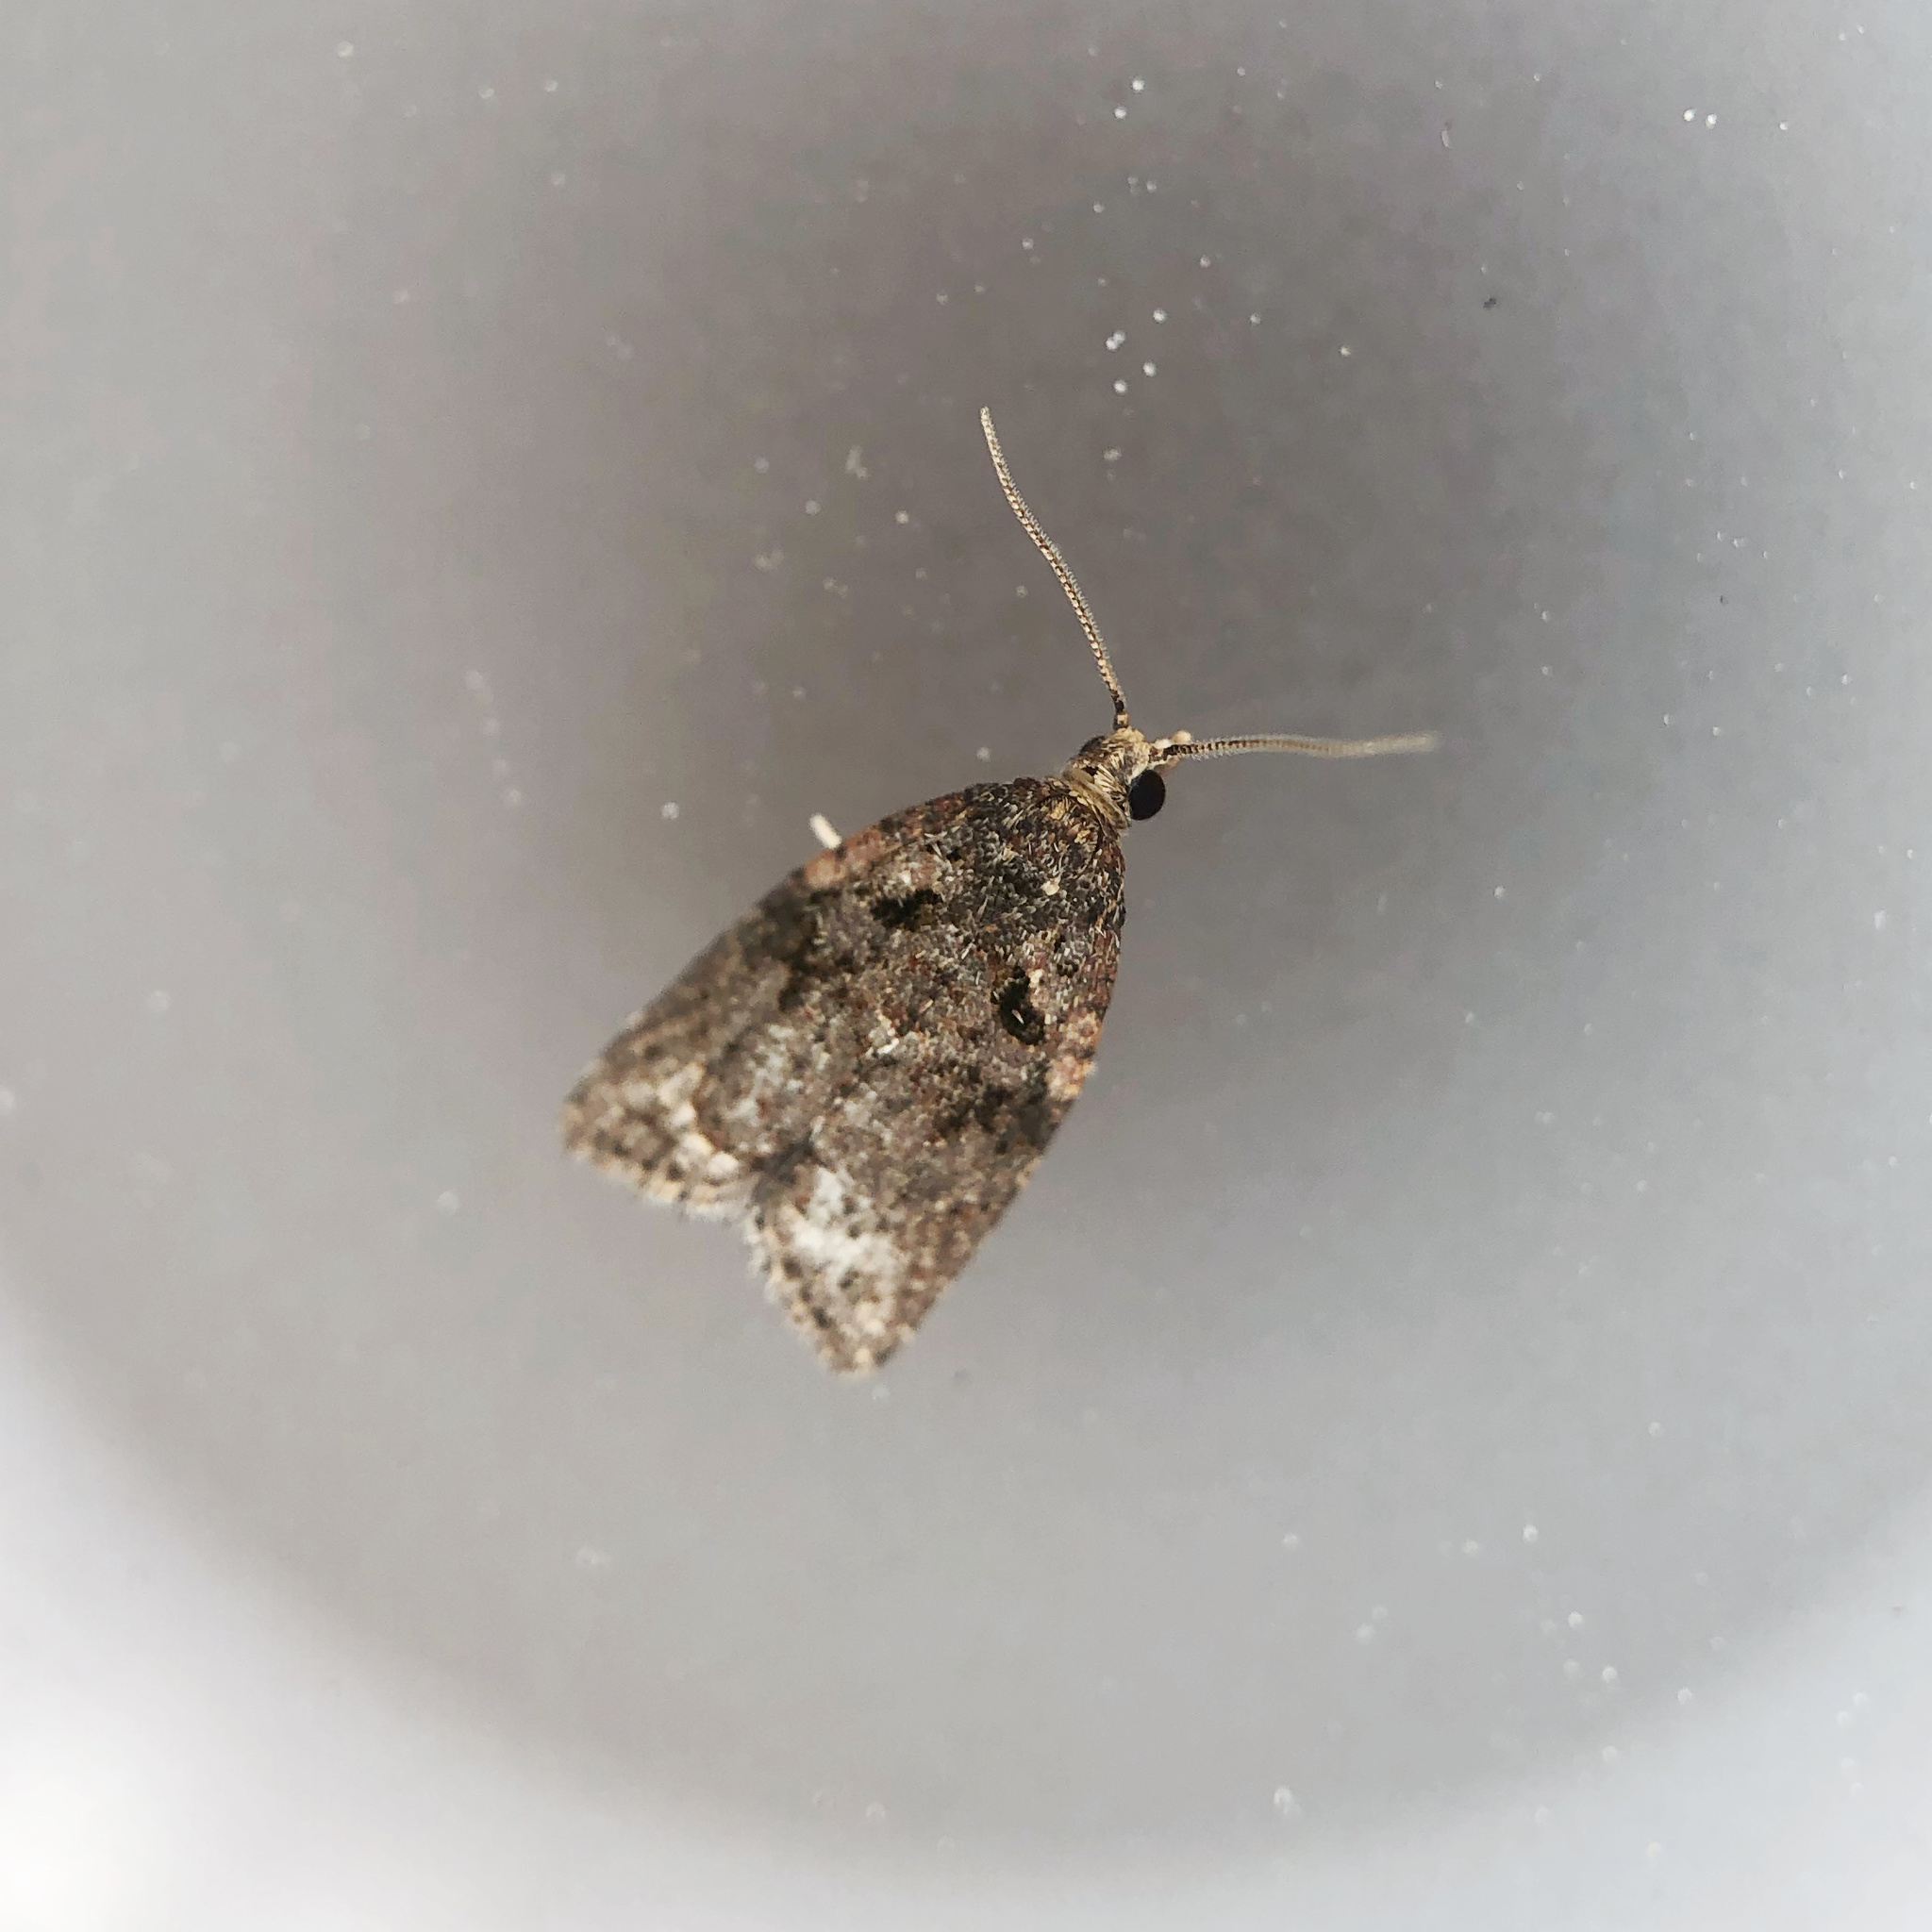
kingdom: Animalia
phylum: Arthropoda
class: Insecta
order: Lepidoptera
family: Tortricidae
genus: Capua
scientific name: Capua intractana
